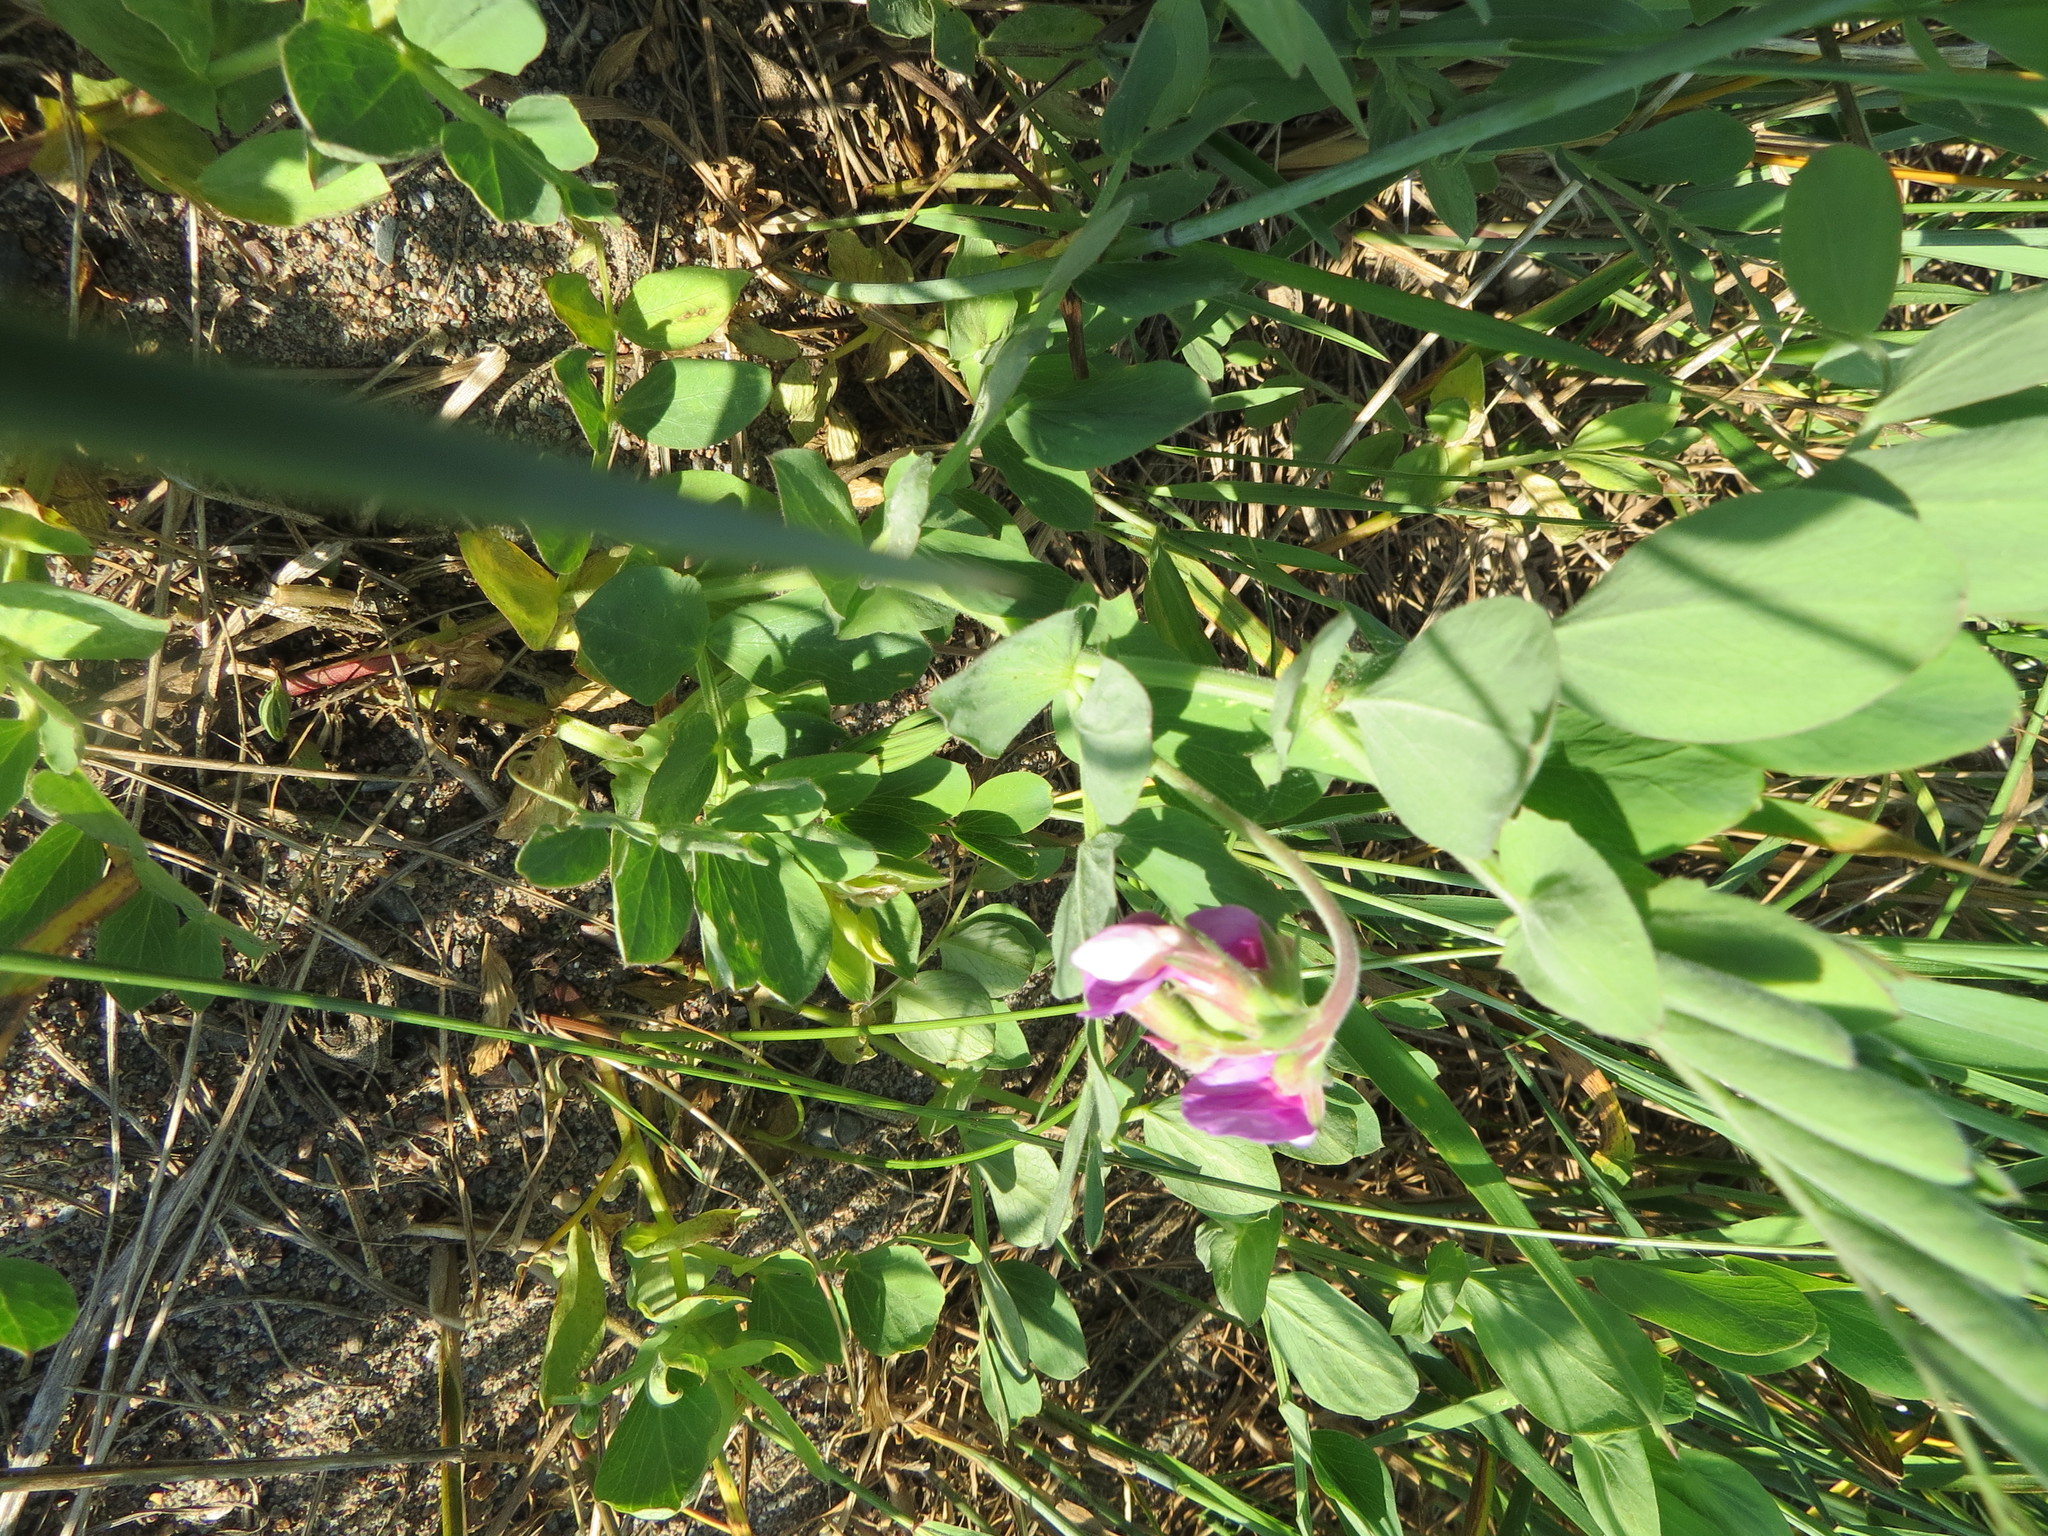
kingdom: Plantae
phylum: Tracheophyta
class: Magnoliopsida
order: Fabales
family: Fabaceae
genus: Lathyrus
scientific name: Lathyrus japonicus
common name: Sea pea
